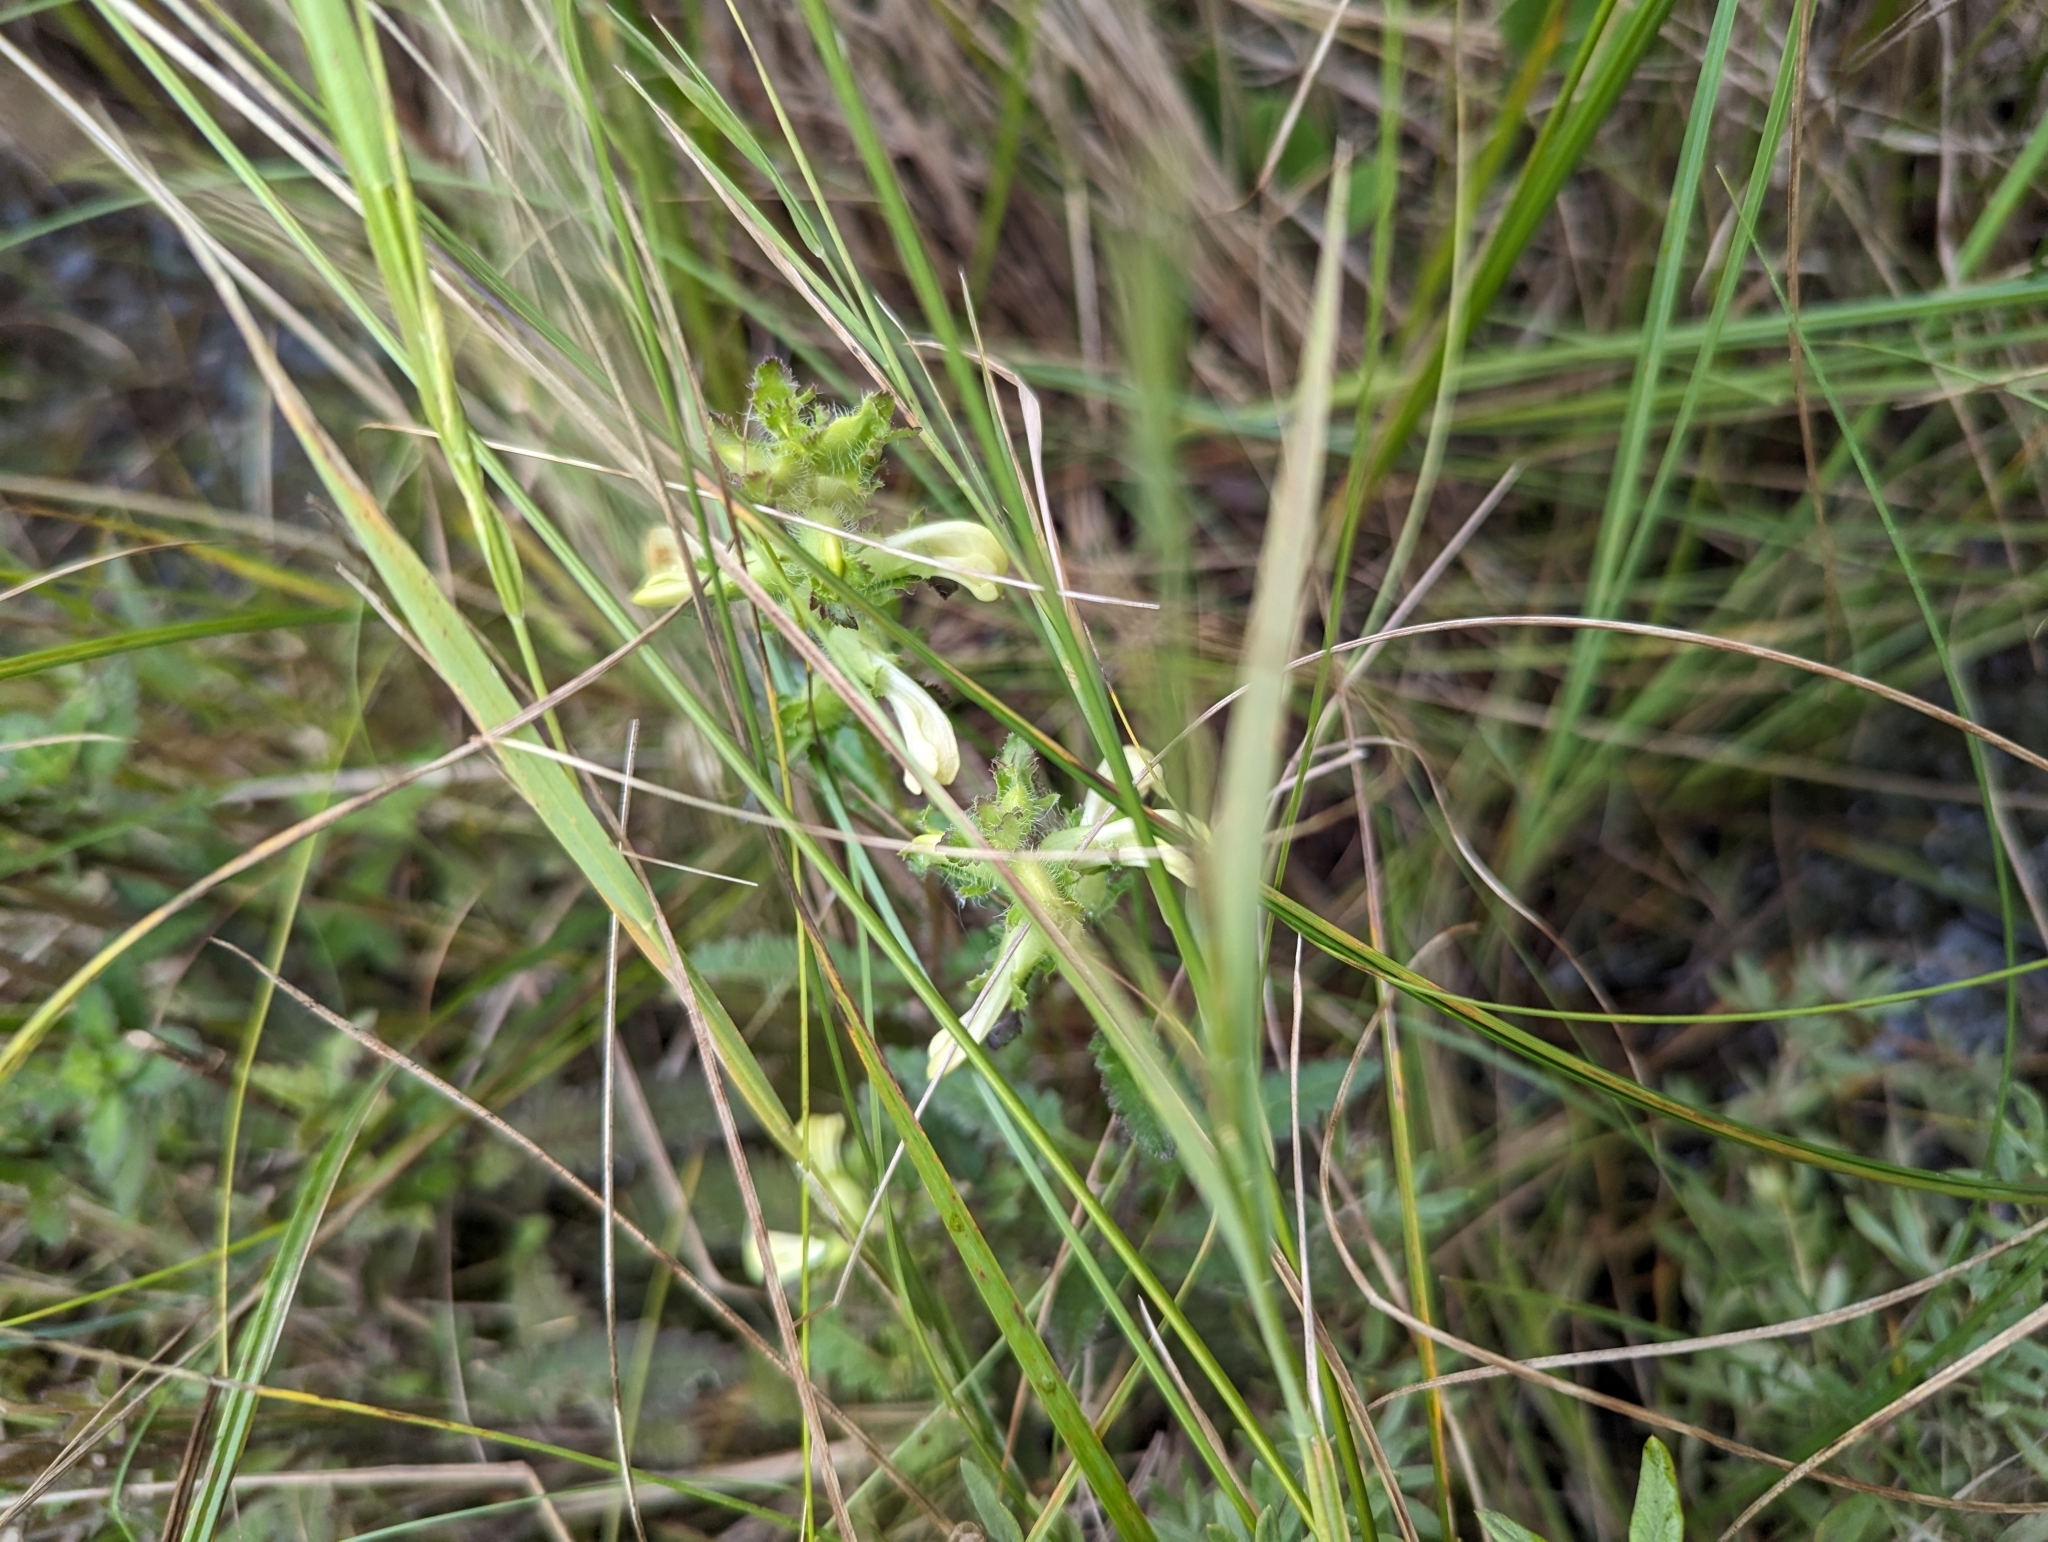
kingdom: Plantae
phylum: Tracheophyta
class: Magnoliopsida
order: Lamiales
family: Orobanchaceae
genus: Pedicularis
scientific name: Pedicularis lanceolata
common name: Swamp lousewort
